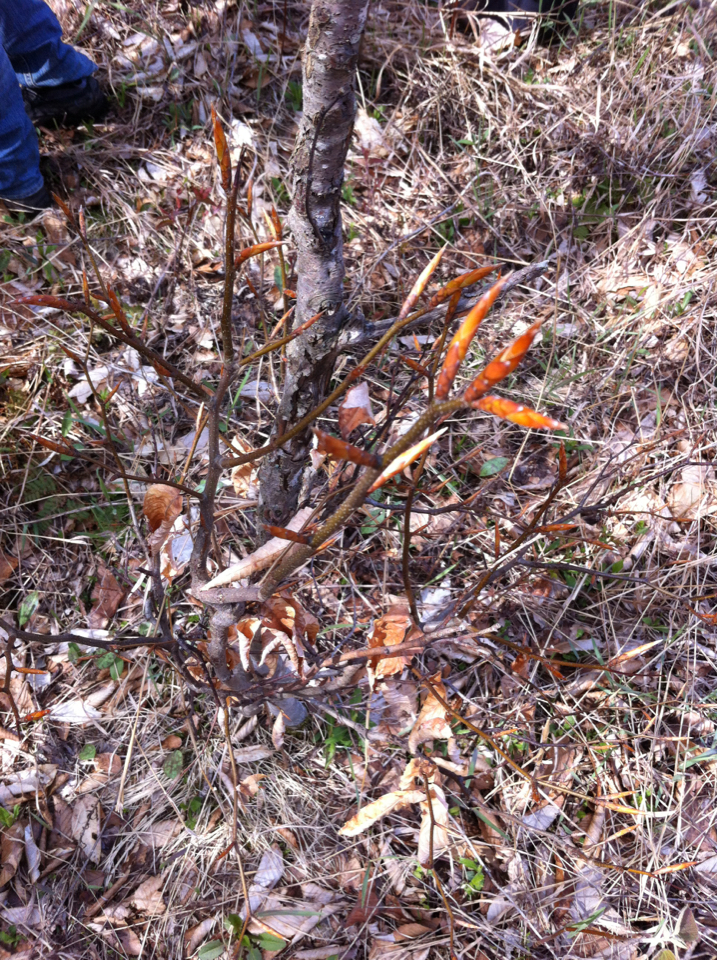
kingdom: Plantae
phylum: Tracheophyta
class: Magnoliopsida
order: Fagales
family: Fagaceae
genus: Fagus
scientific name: Fagus grandifolia
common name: American beech
